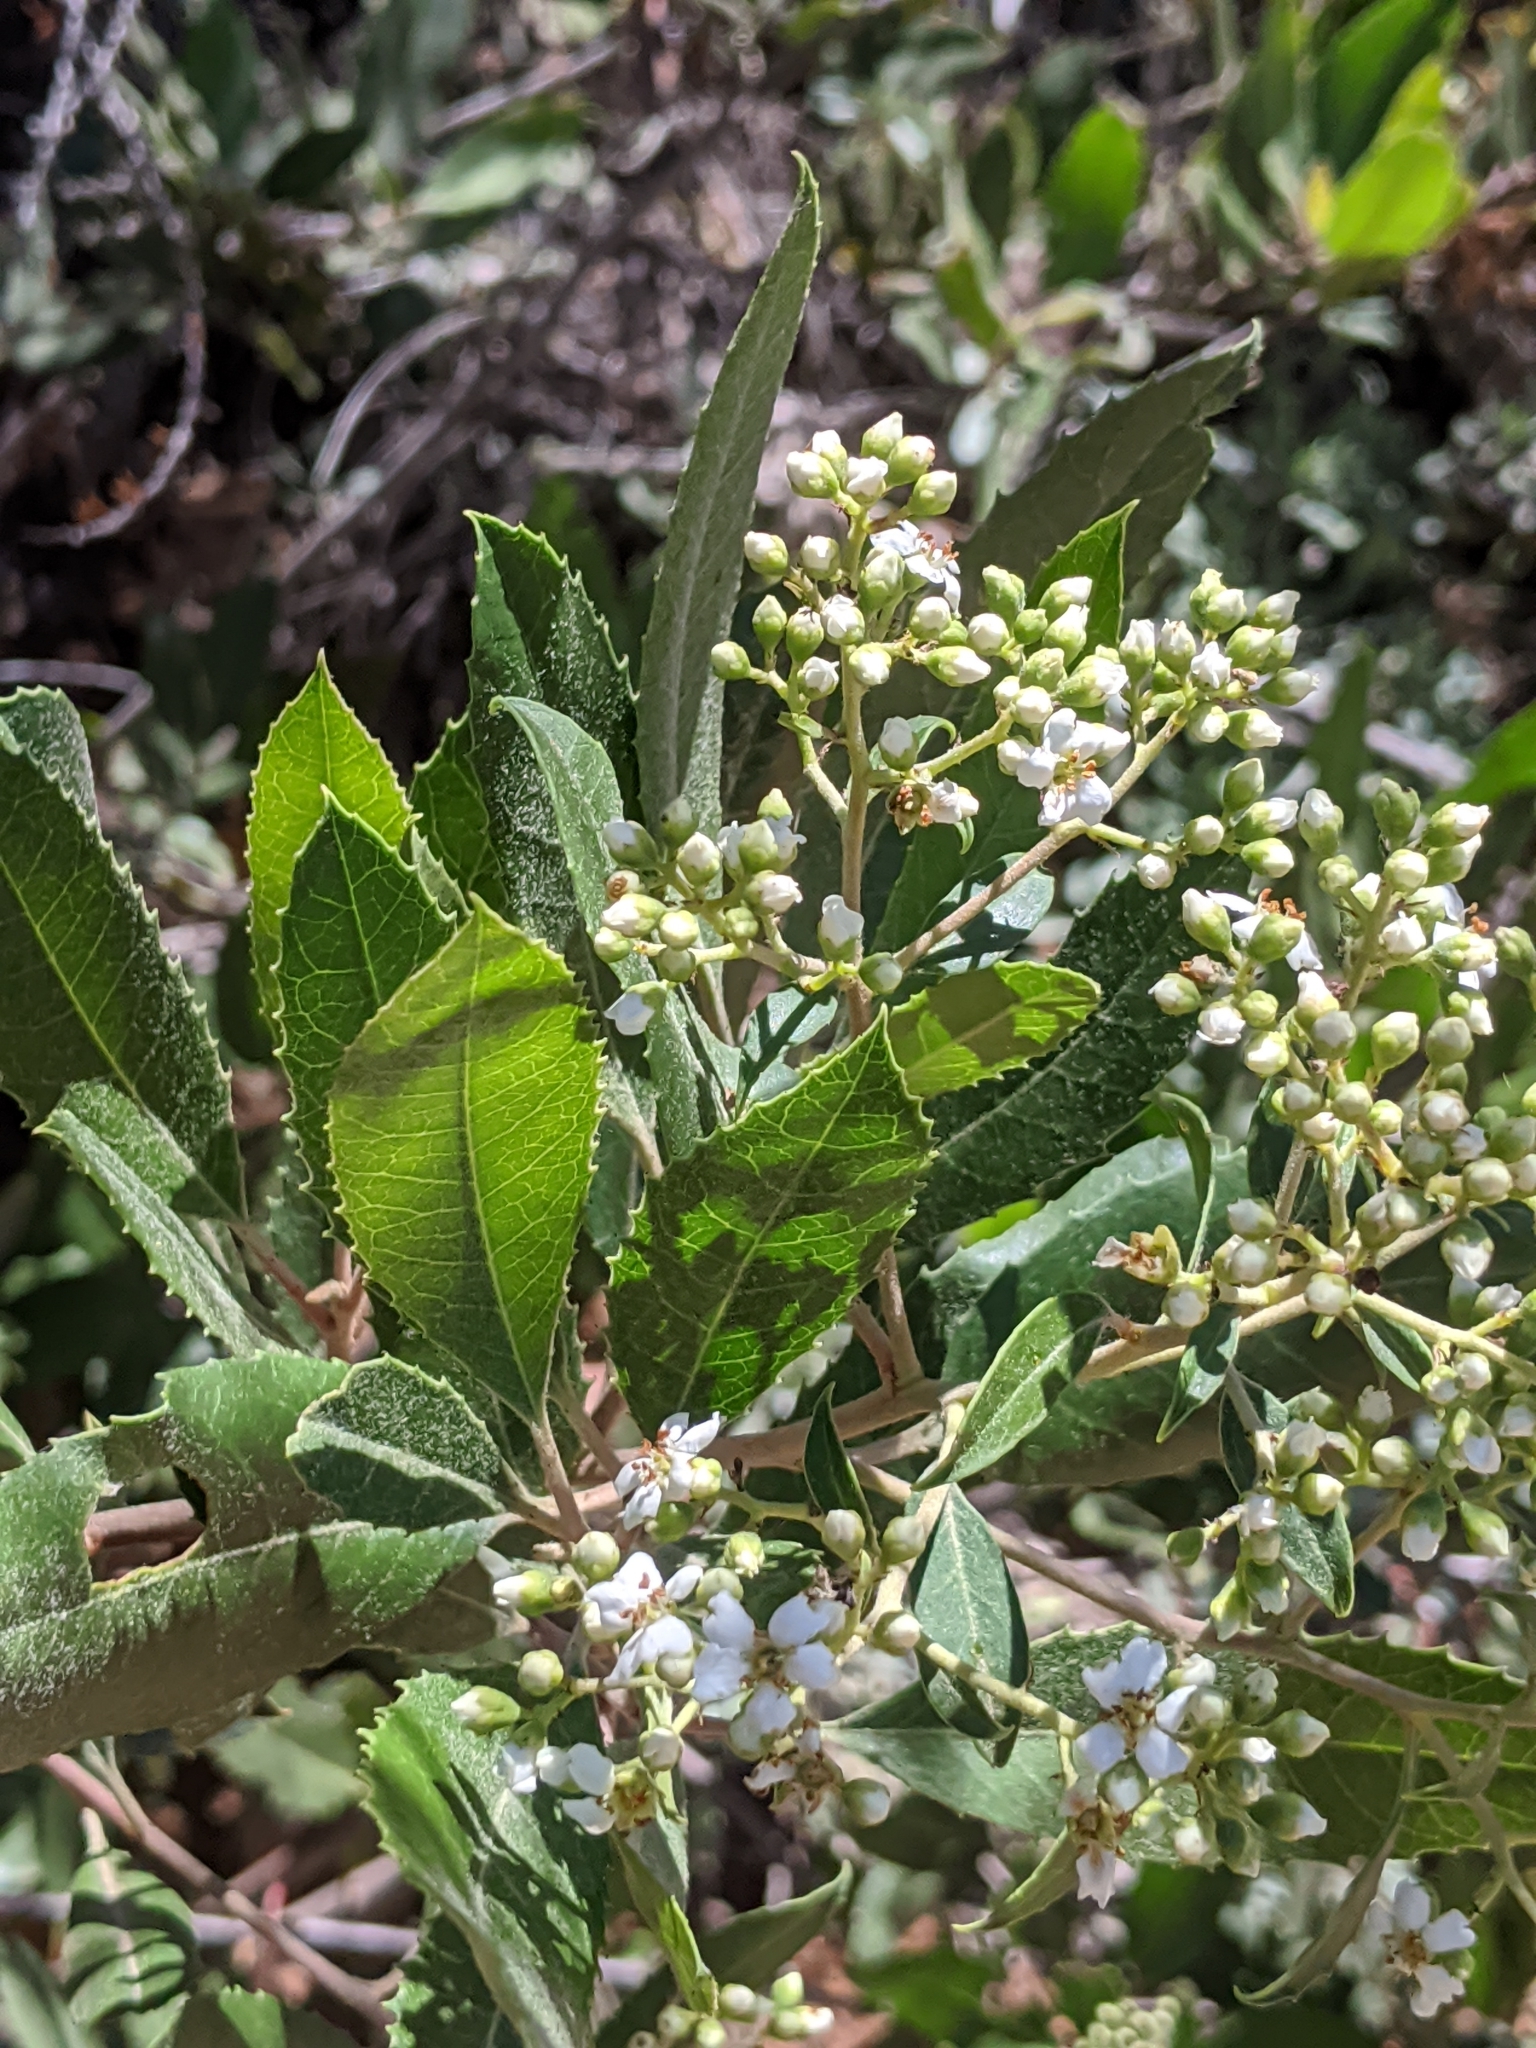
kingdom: Plantae
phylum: Tracheophyta
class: Magnoliopsida
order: Rosales
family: Rosaceae
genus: Heteromeles
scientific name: Heteromeles arbutifolia
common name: California-holly
